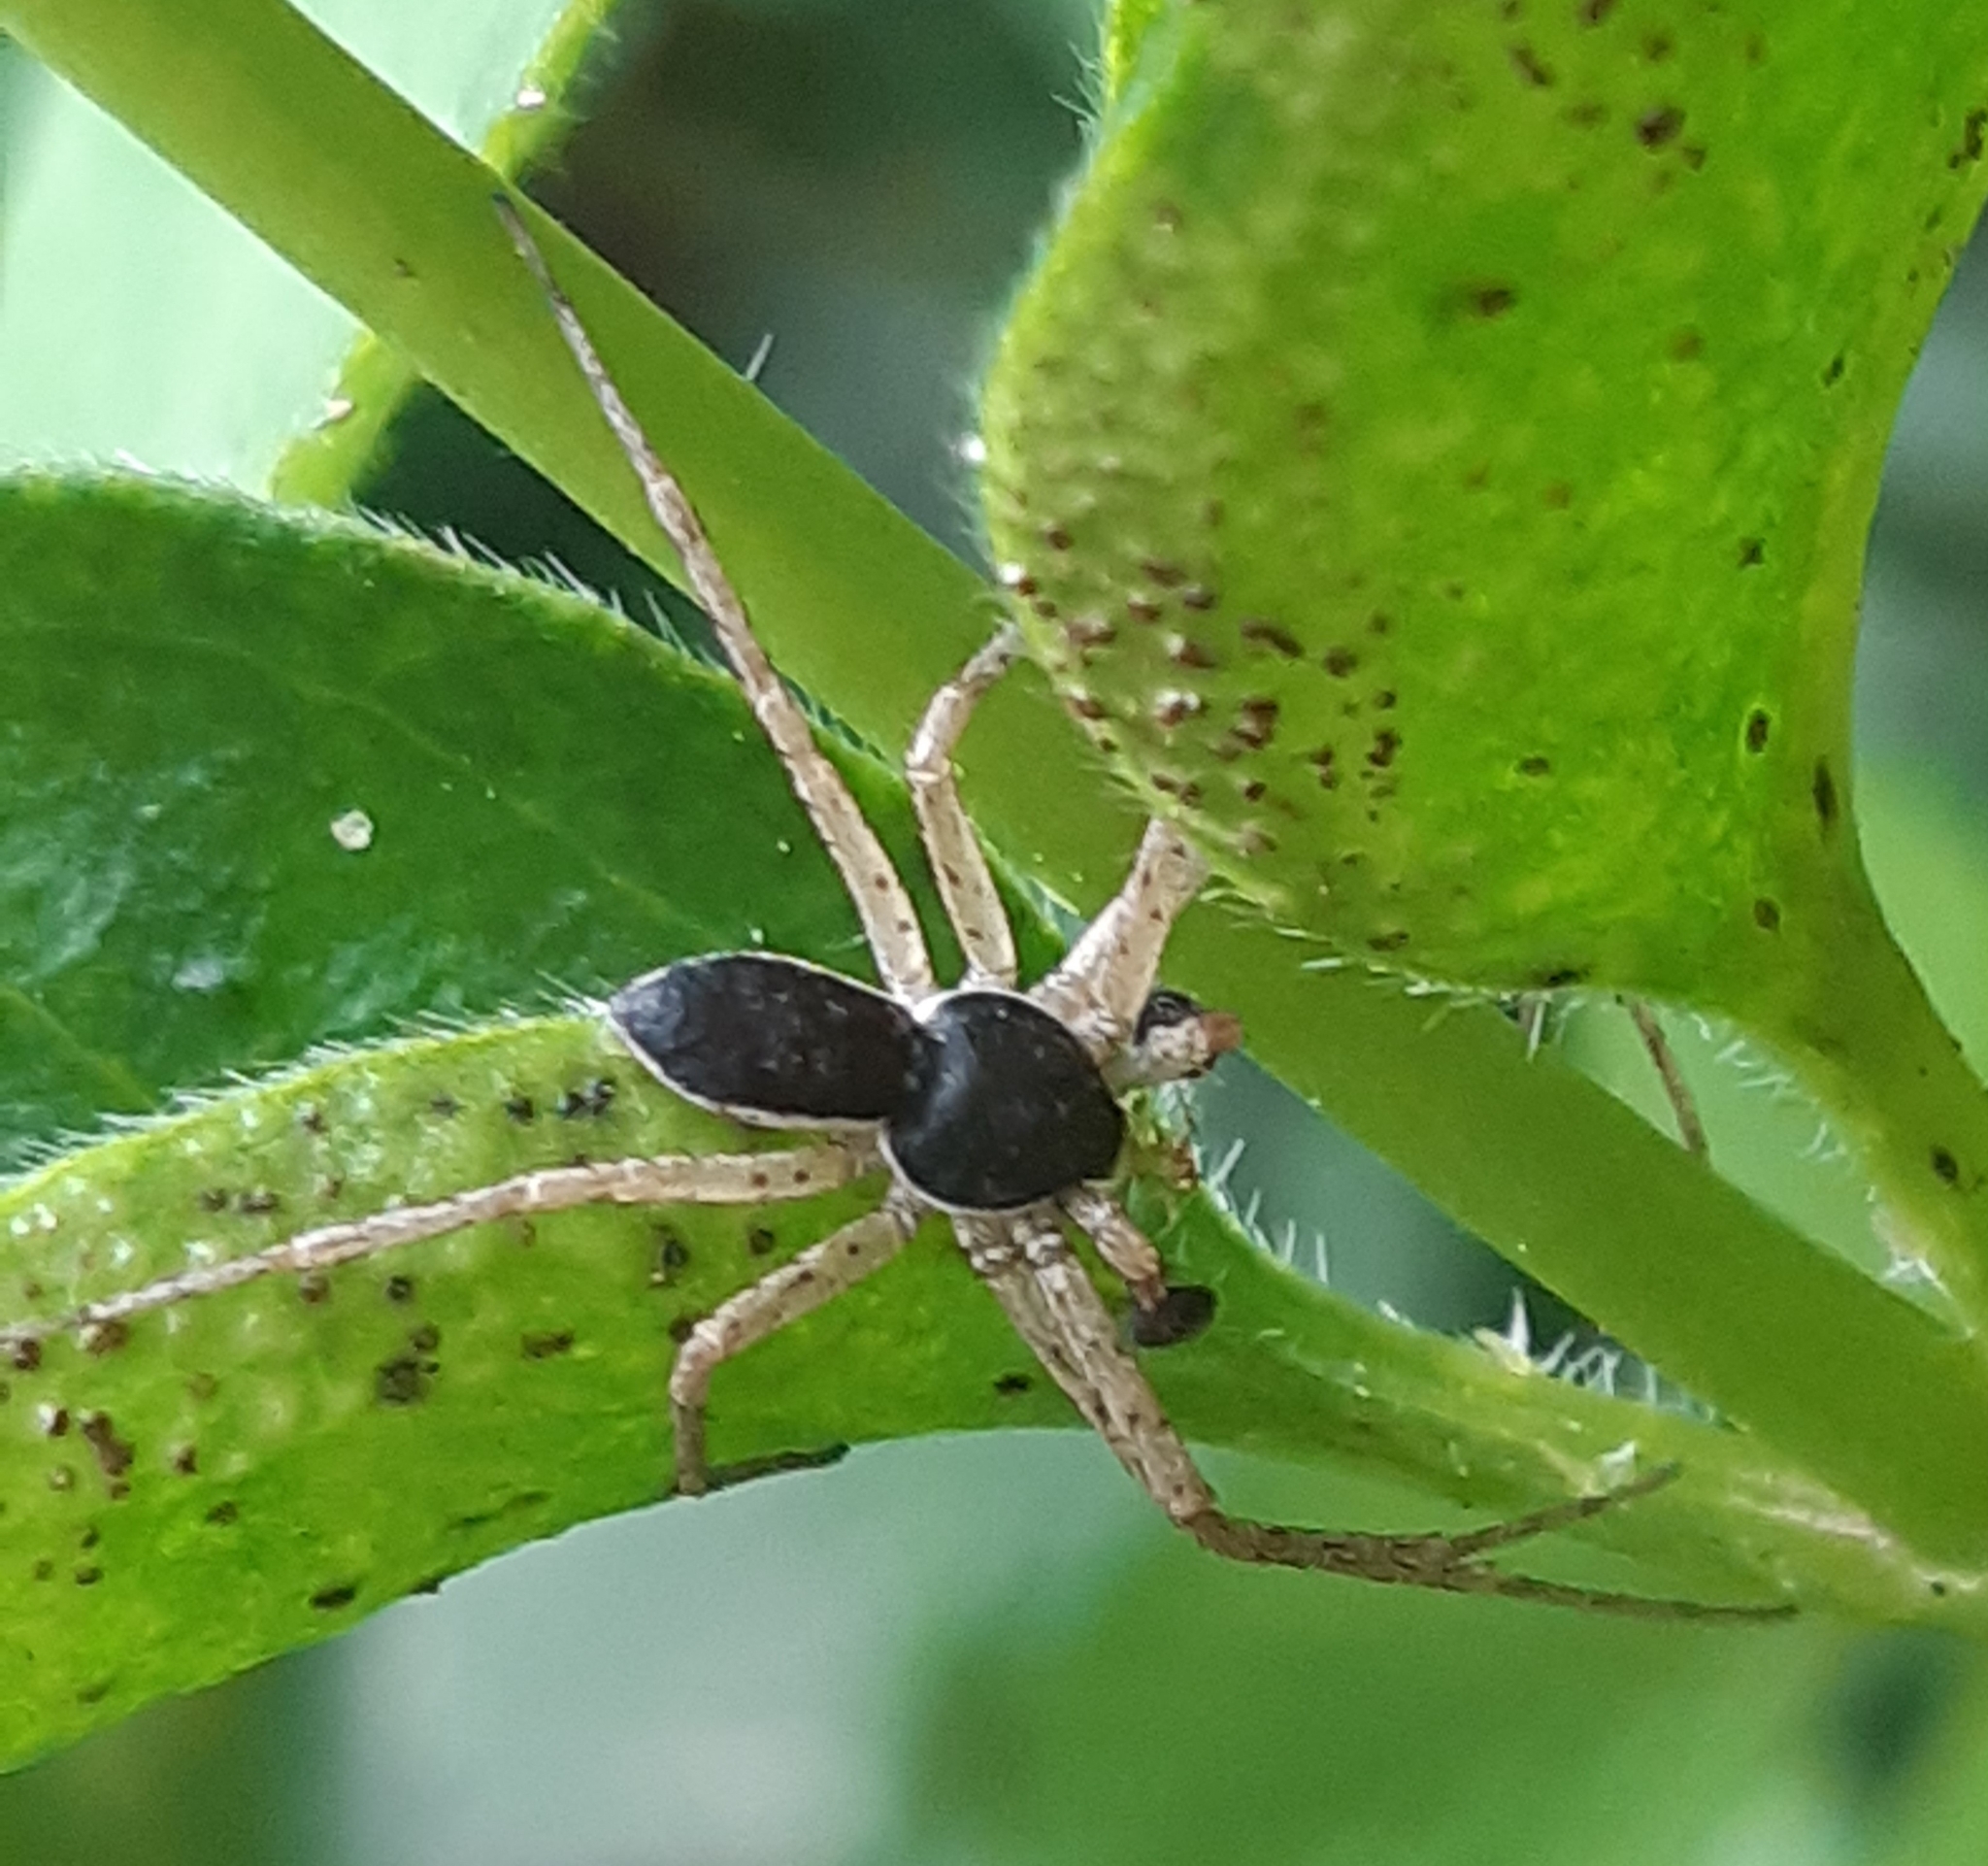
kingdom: Animalia
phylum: Arthropoda
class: Arachnida
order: Araneae
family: Philodromidae
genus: Philodromus
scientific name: Philodromus dispar
